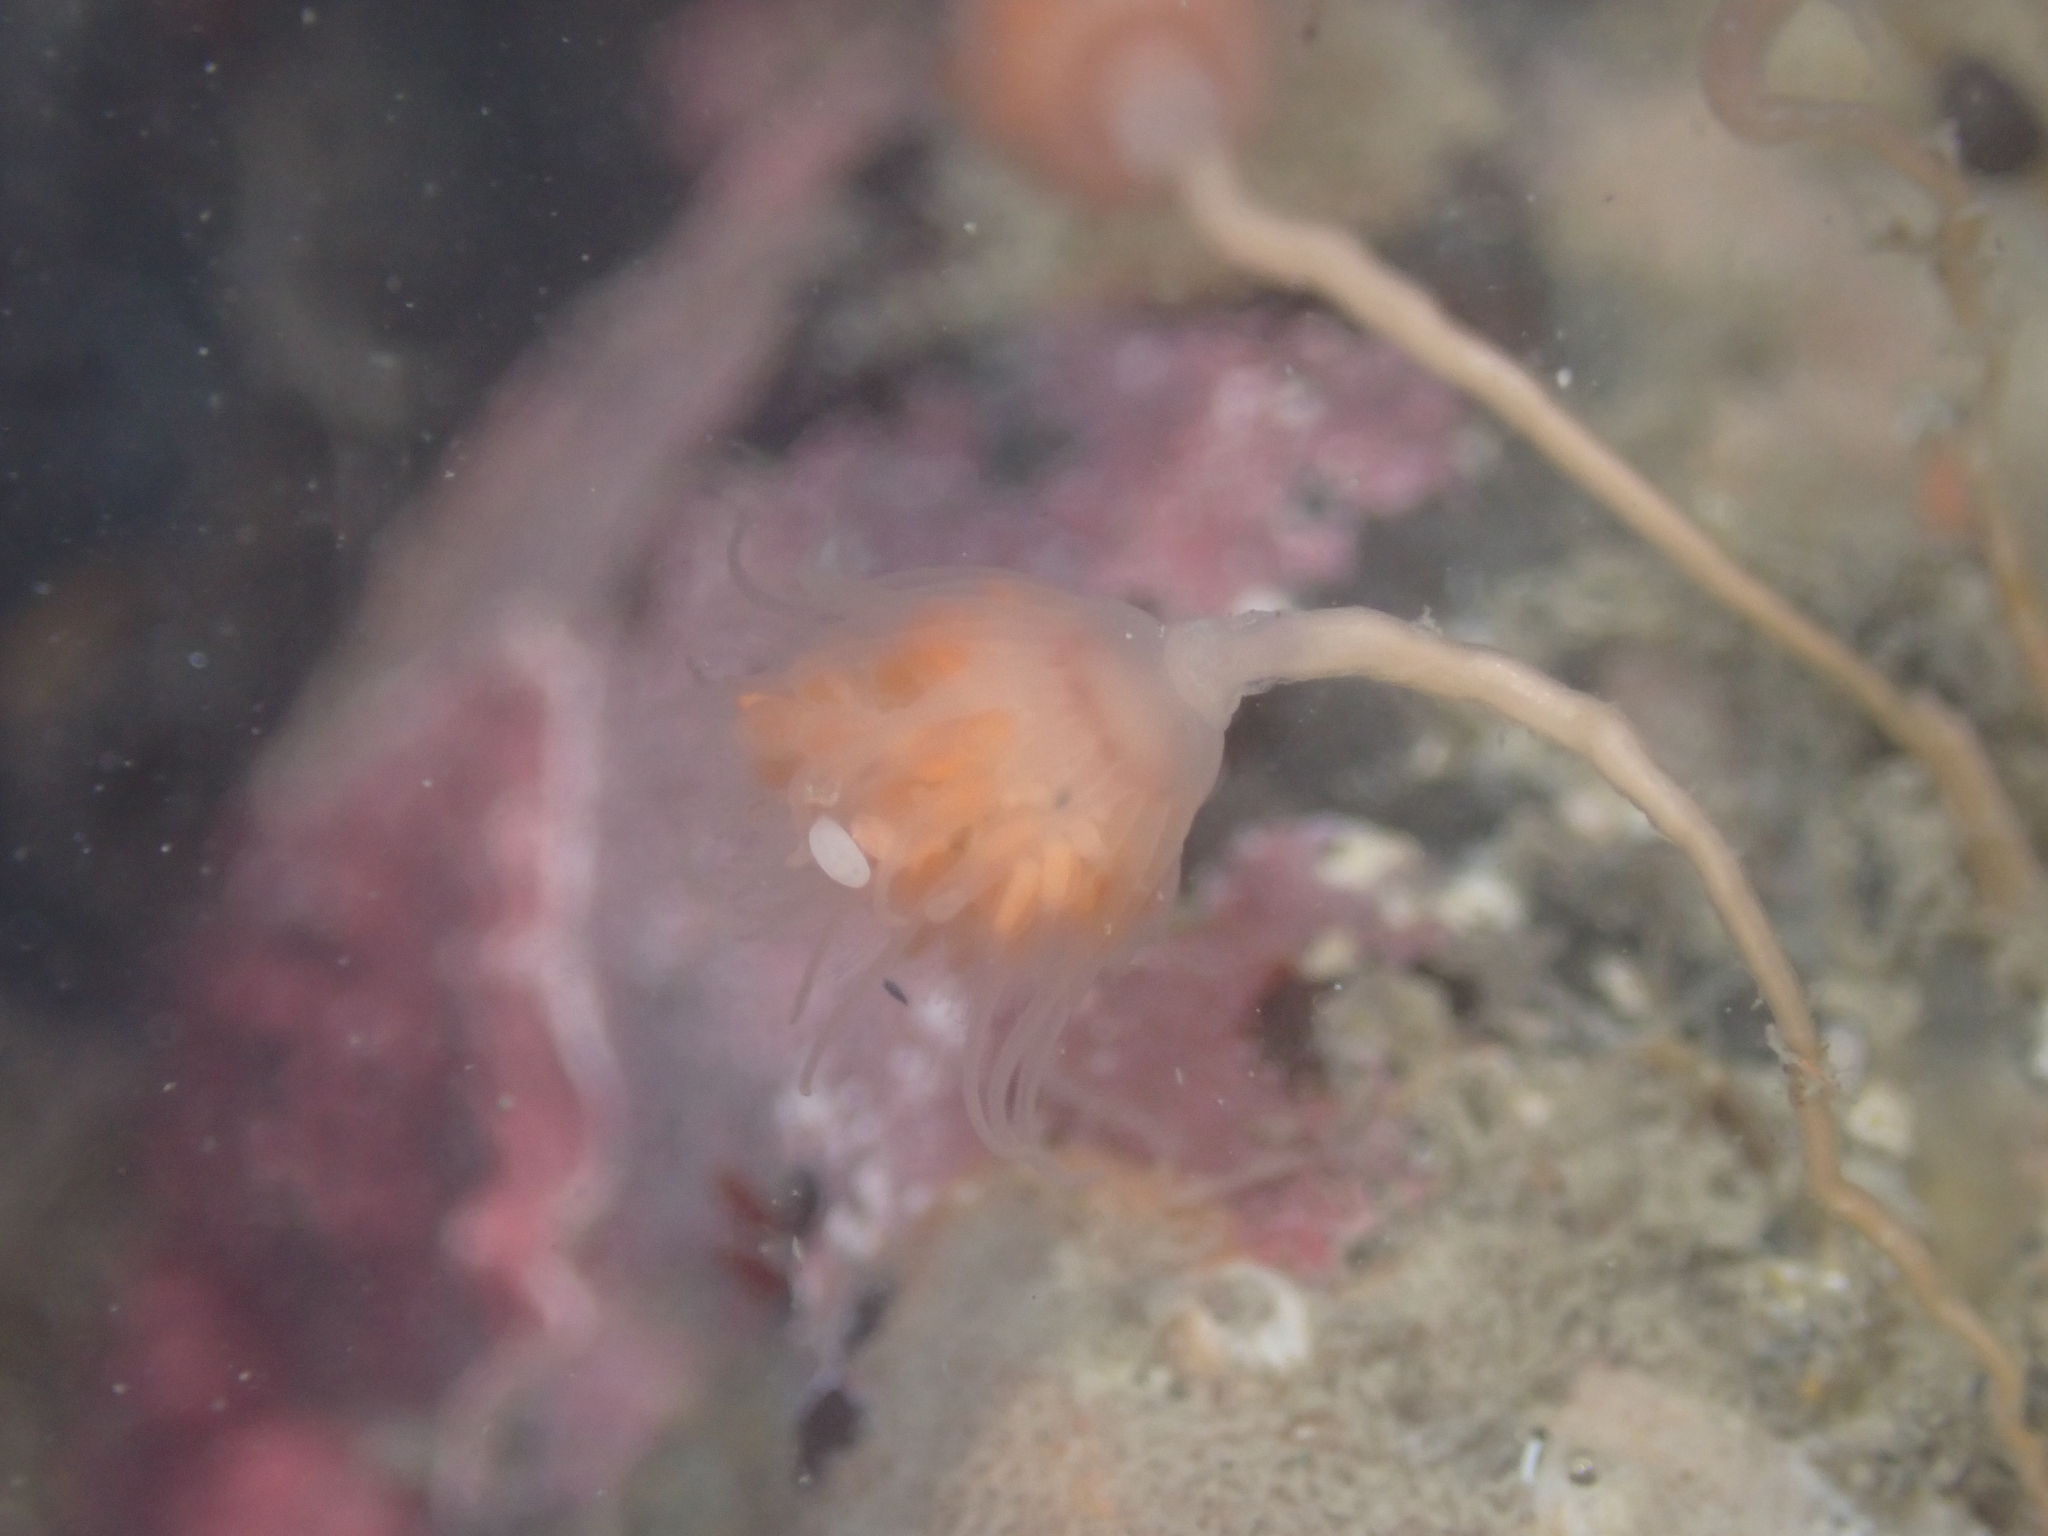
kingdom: Animalia
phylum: Cnidaria
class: Hydrozoa
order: Anthoathecata
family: Tubulariidae
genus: Ectopleura
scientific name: Ectopleura marina
